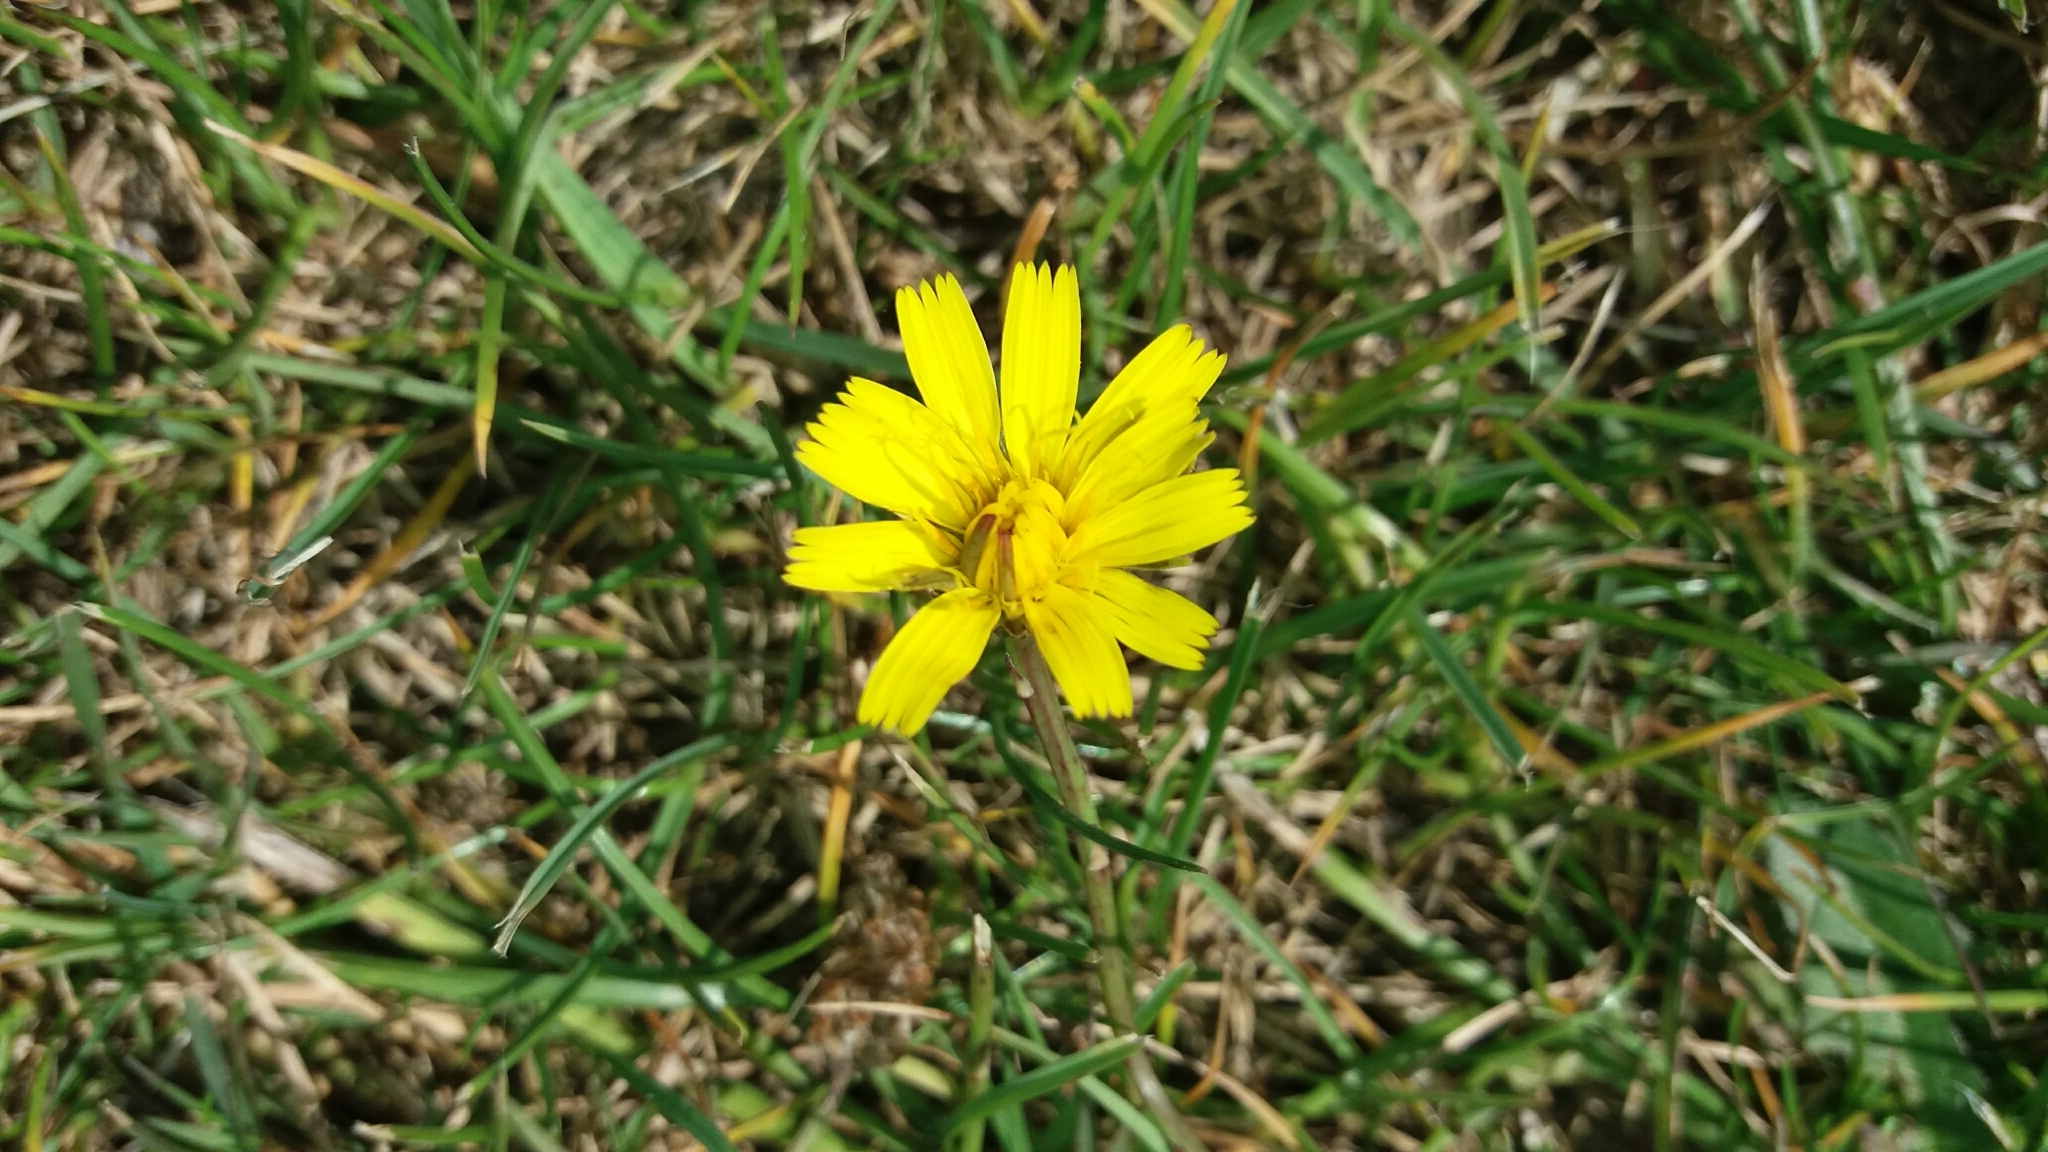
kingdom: Plantae
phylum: Tracheophyta
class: Magnoliopsida
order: Asterales
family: Asteraceae
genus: Hypochaeris
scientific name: Hypochaeris radicata
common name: Flatweed
